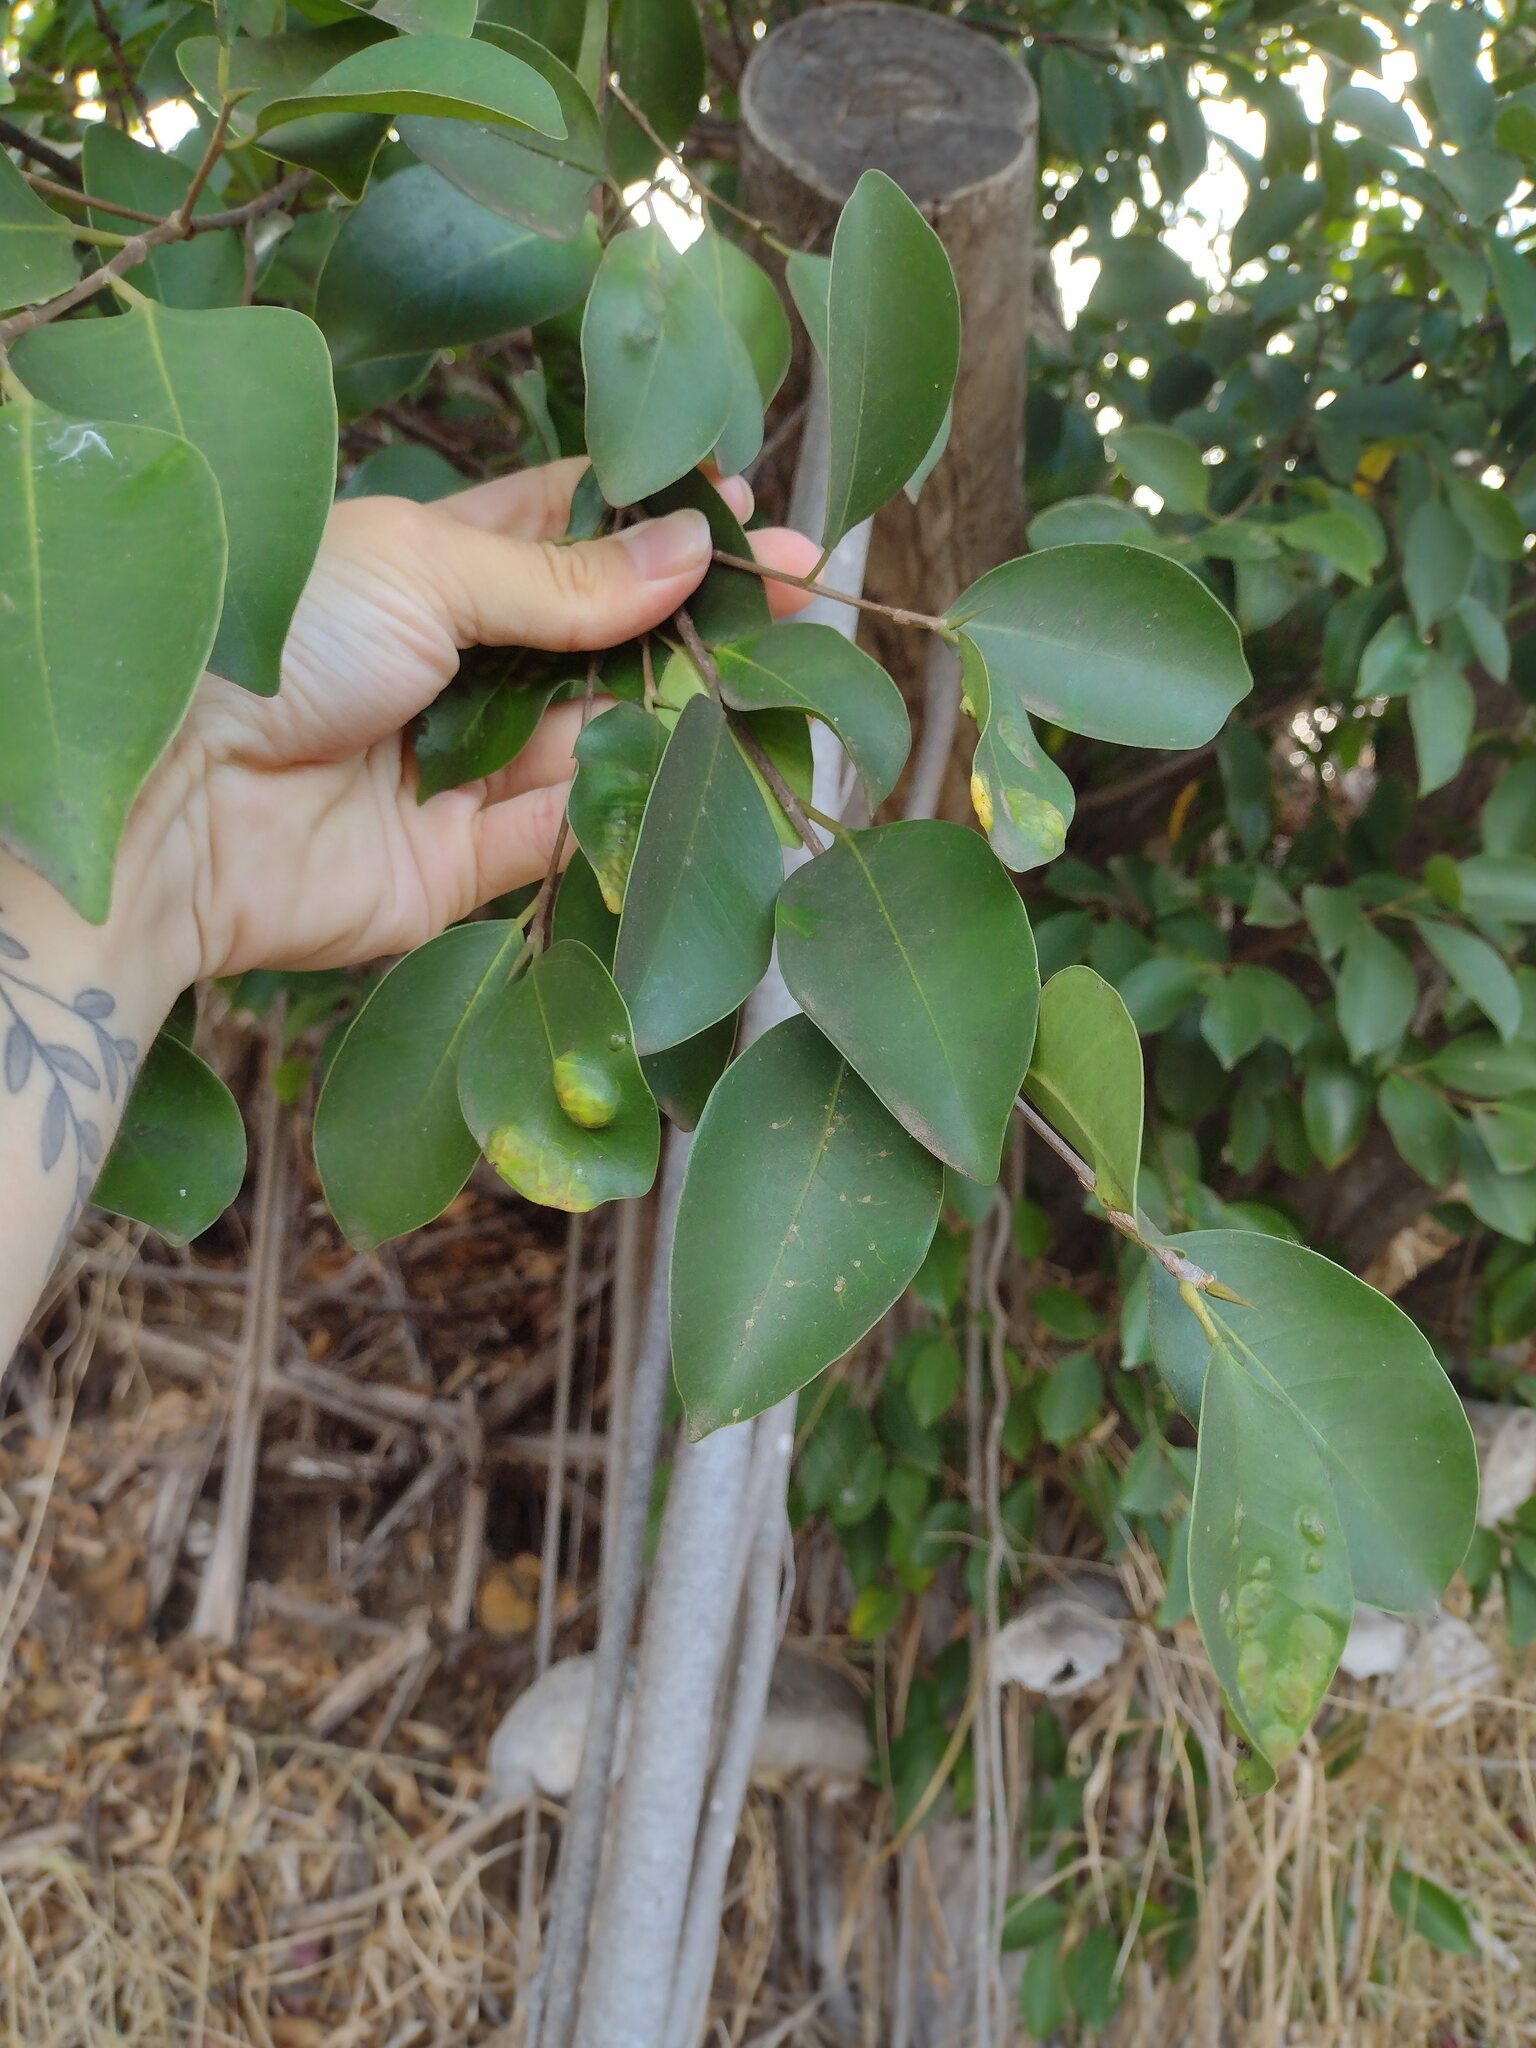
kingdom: Plantae
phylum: Tracheophyta
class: Magnoliopsida
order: Rosales
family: Moraceae
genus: Ficus
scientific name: Ficus microcarpa
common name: Chinese banyan
